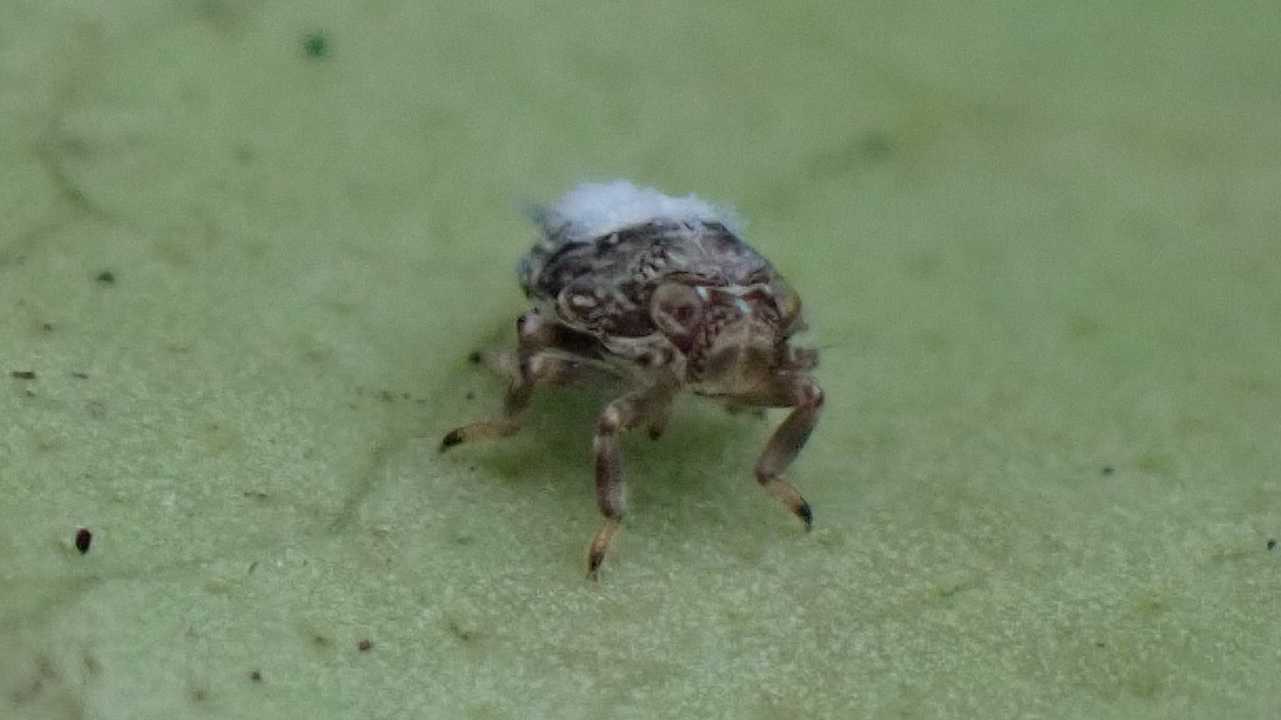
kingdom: Animalia
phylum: Arthropoda
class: Insecta
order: Hemiptera
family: Issidae
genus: Issus
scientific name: Issus coleoptratus
